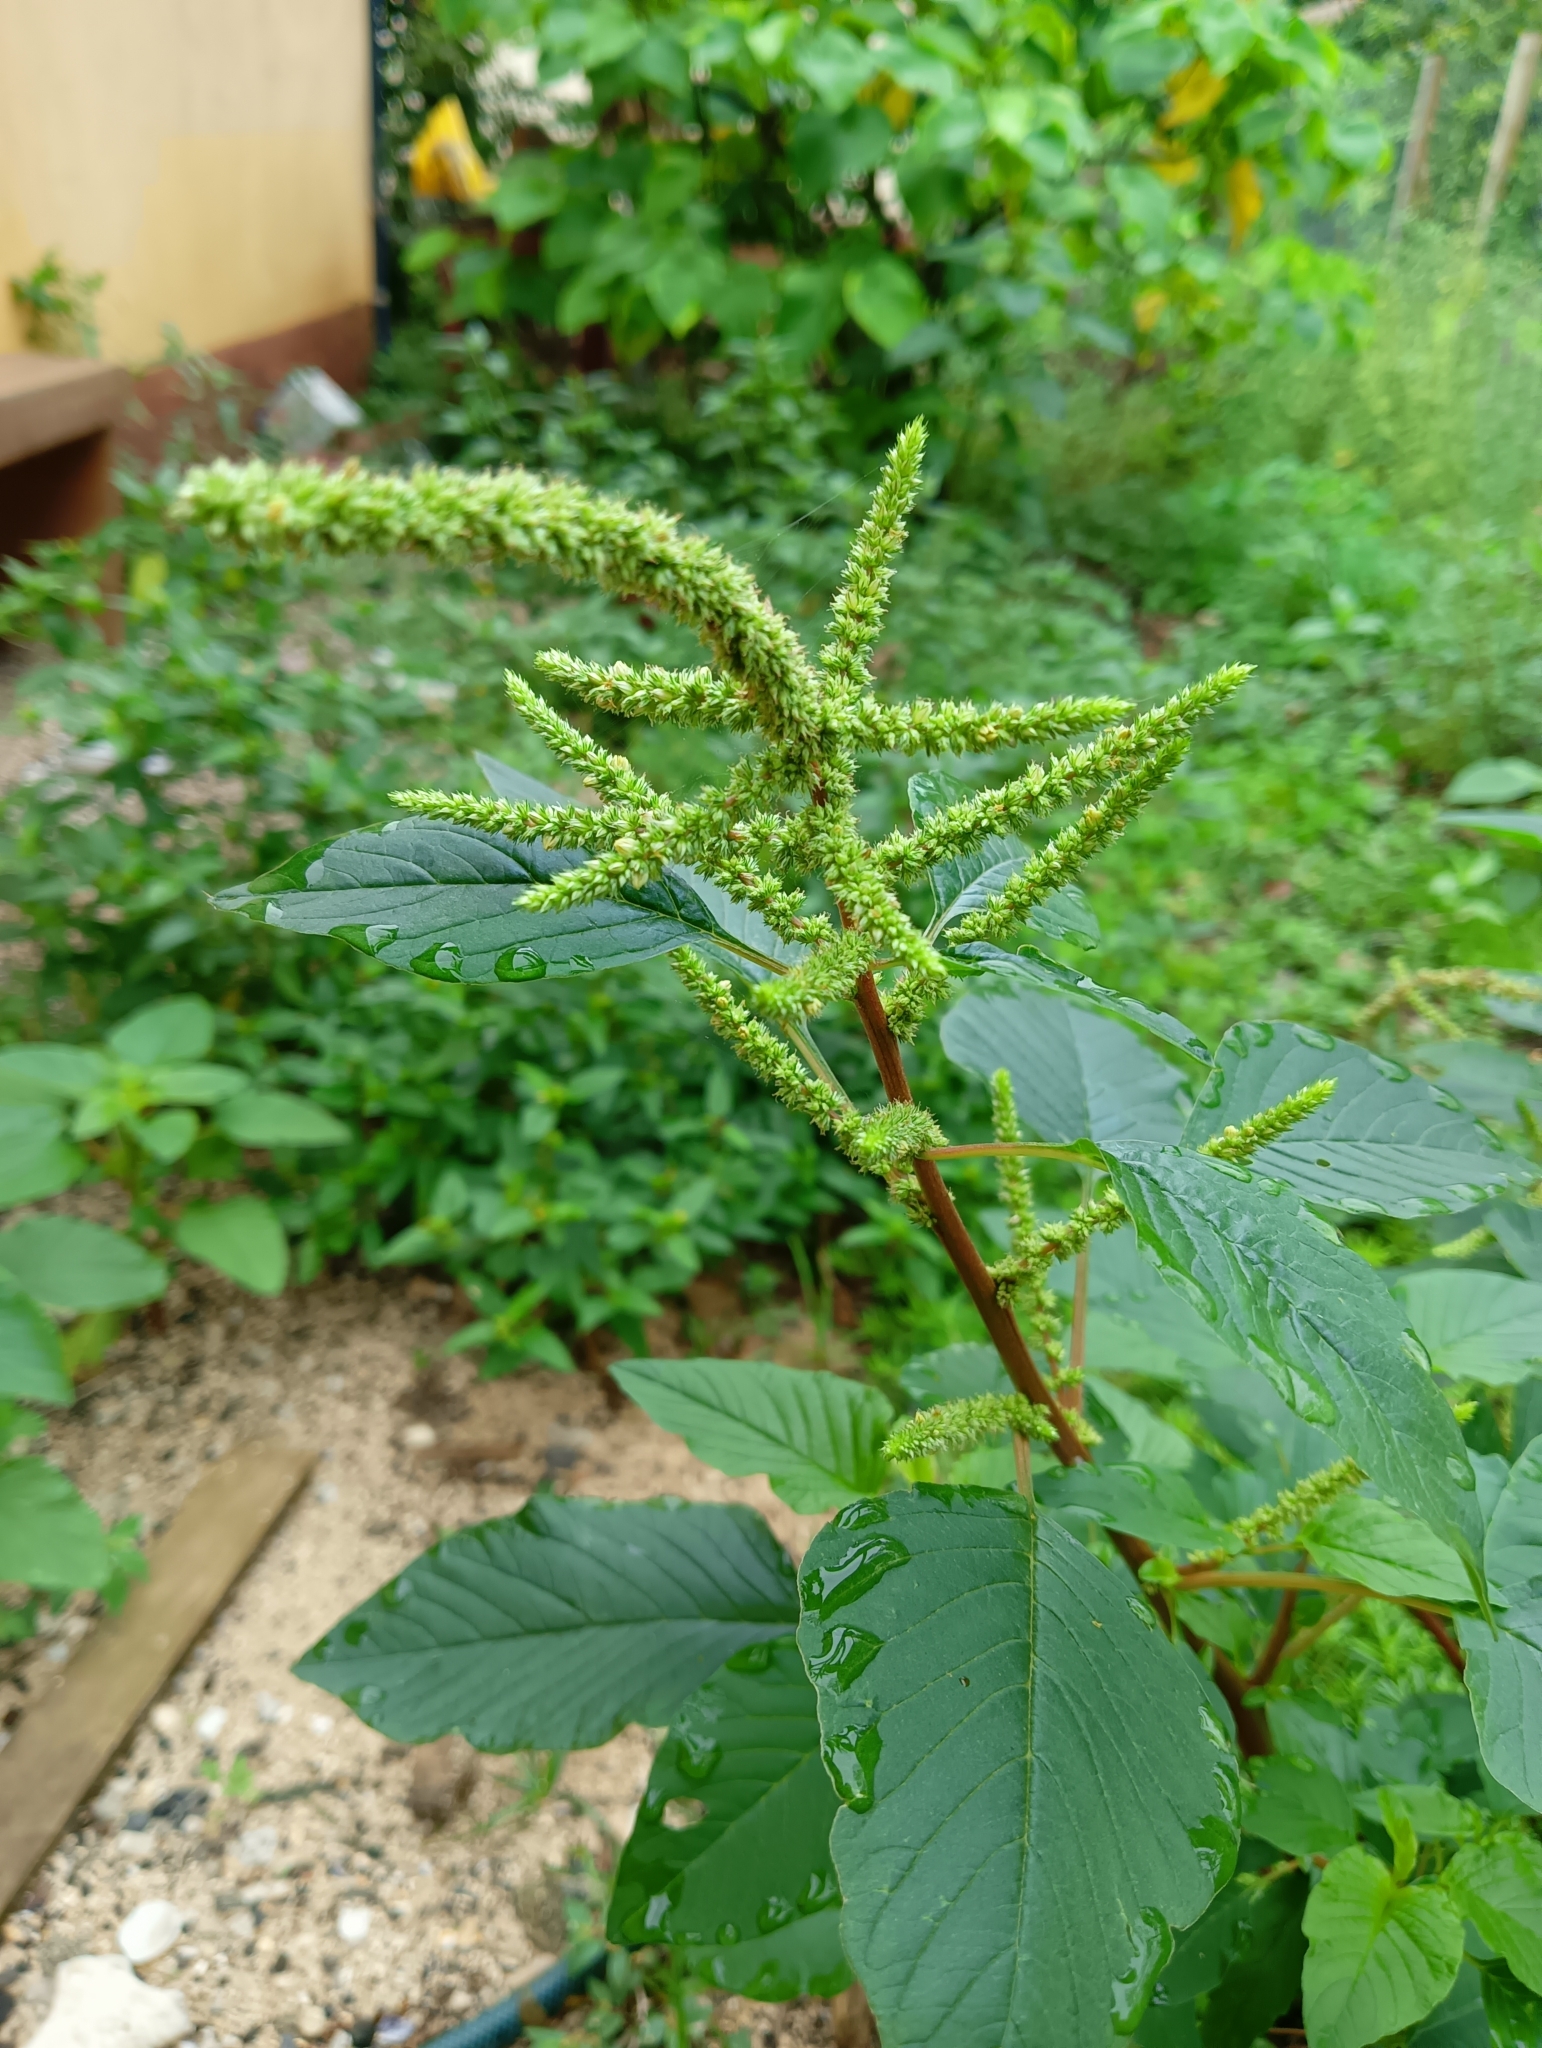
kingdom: Plantae
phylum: Tracheophyta
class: Magnoliopsida
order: Caryophyllales
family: Amaranthaceae
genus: Amaranthus
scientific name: Amaranthus viridis
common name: Slender amaranth
